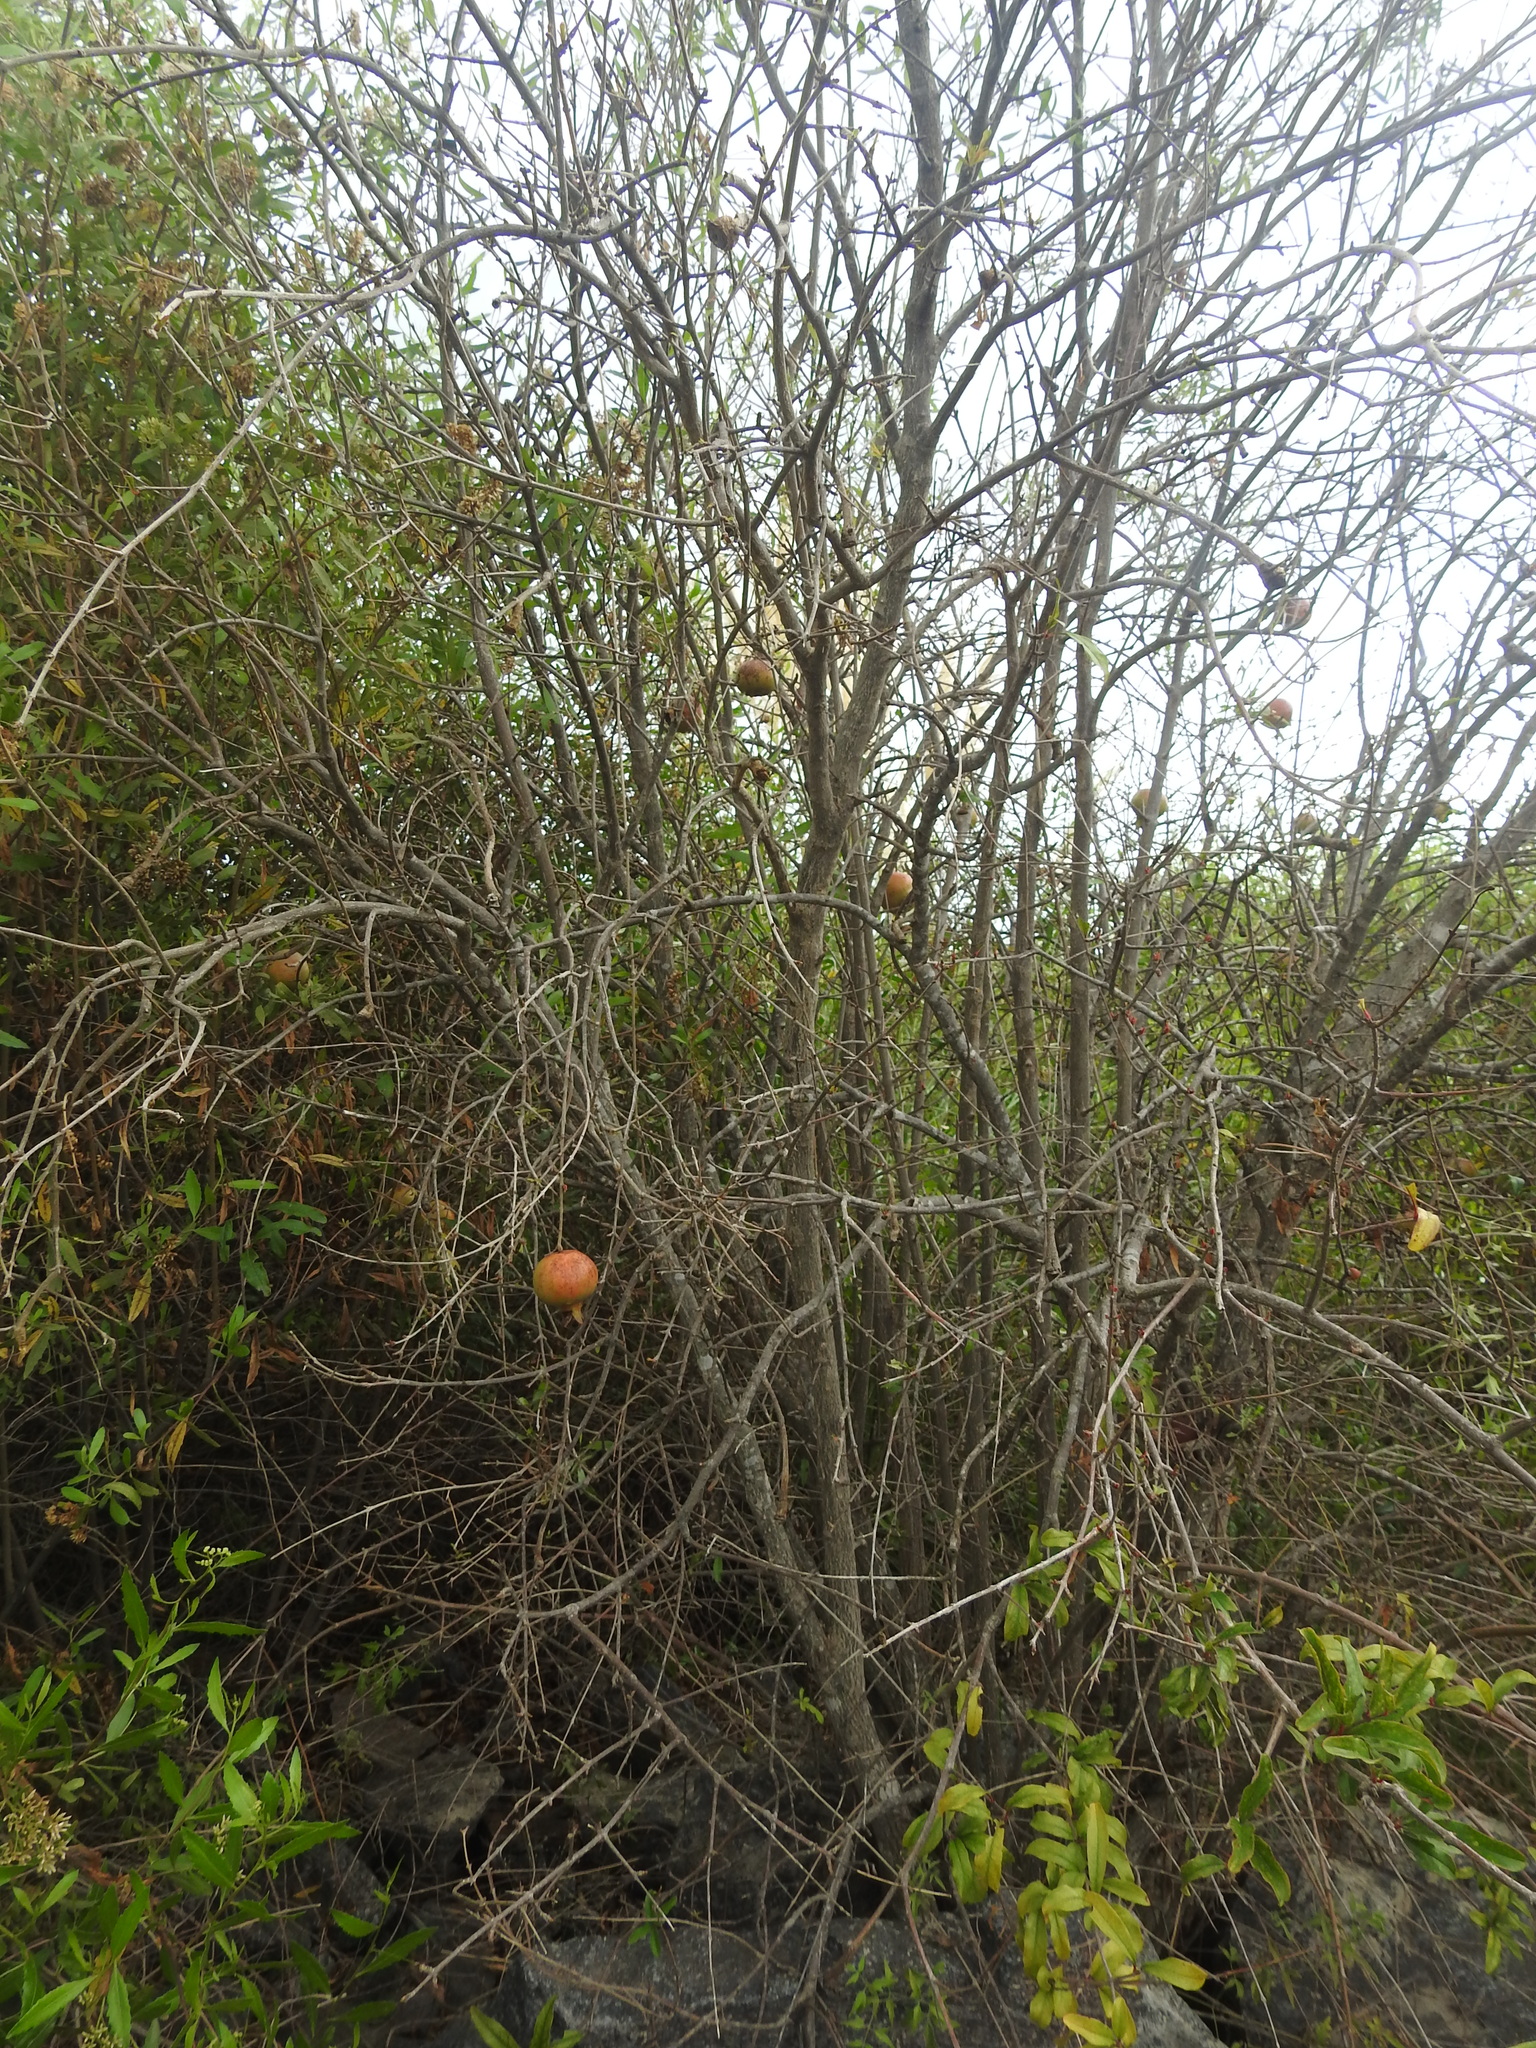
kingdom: Plantae
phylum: Tracheophyta
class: Magnoliopsida
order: Myrtales
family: Lythraceae
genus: Punica
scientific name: Punica granatum
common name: Pomegranate
